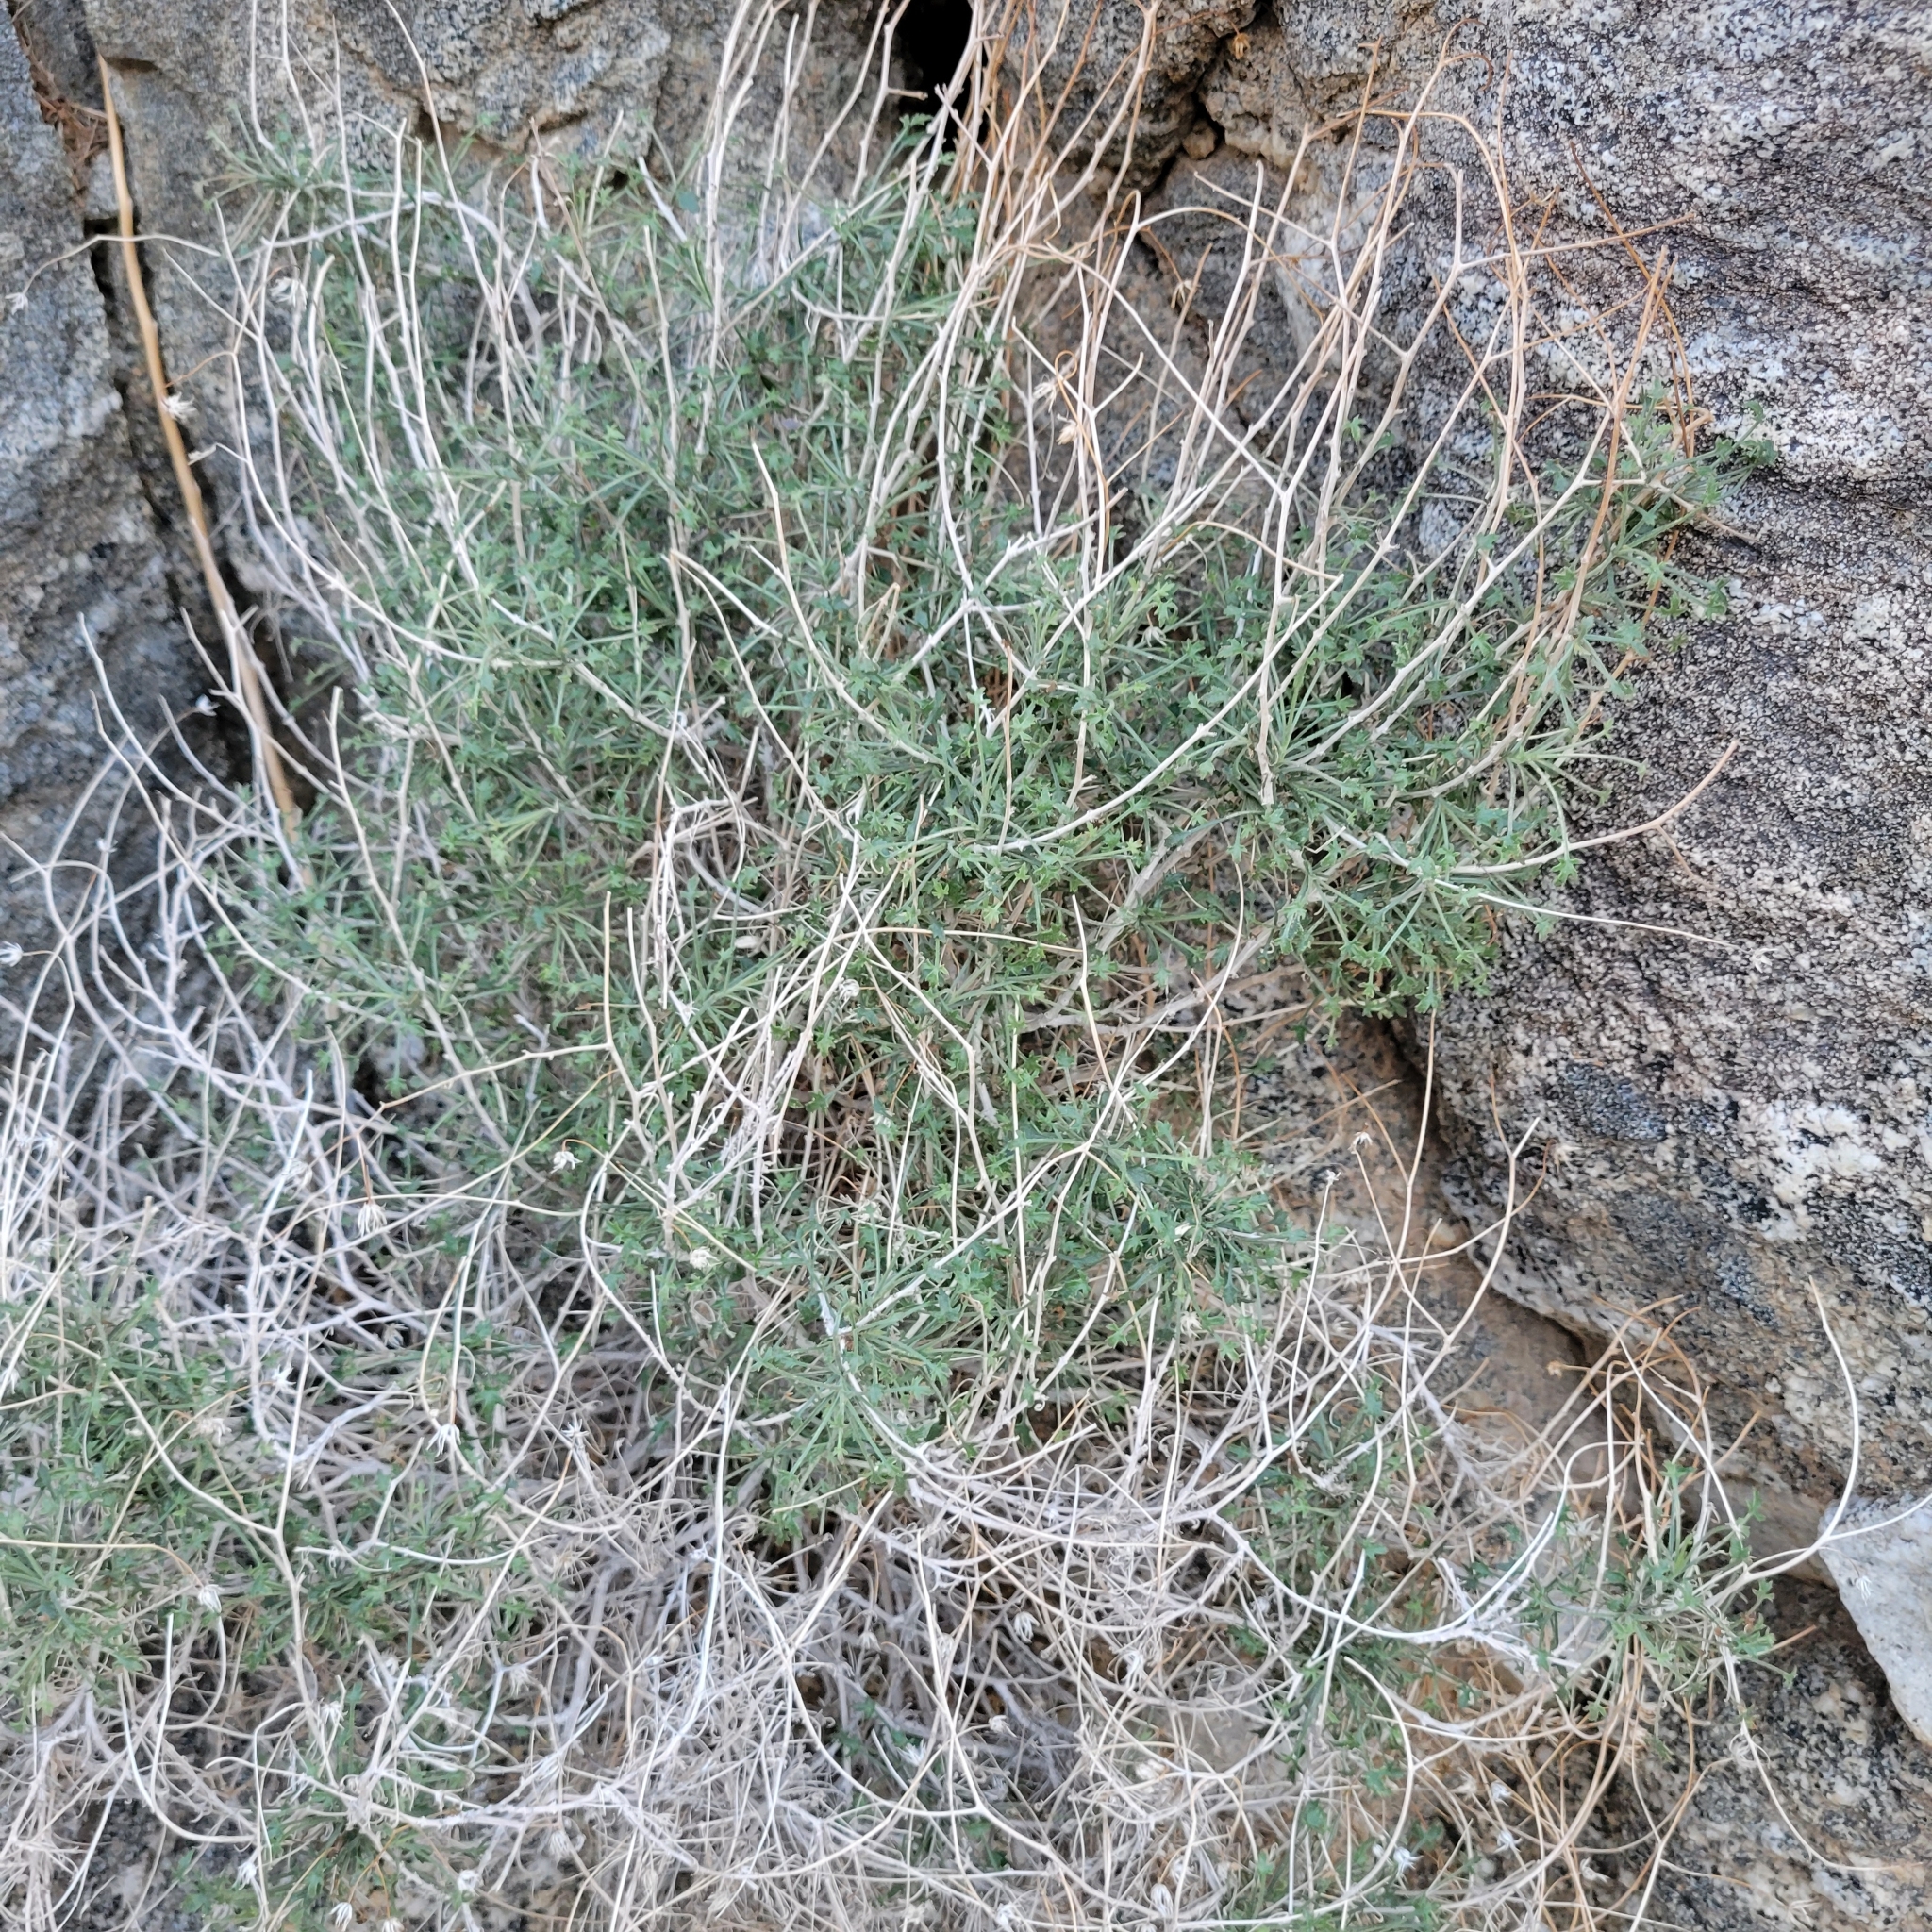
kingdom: Plantae
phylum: Tracheophyta
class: Magnoliopsida
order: Asterales
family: Asteraceae
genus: Pleurocoronis
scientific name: Pleurocoronis pluriseta
